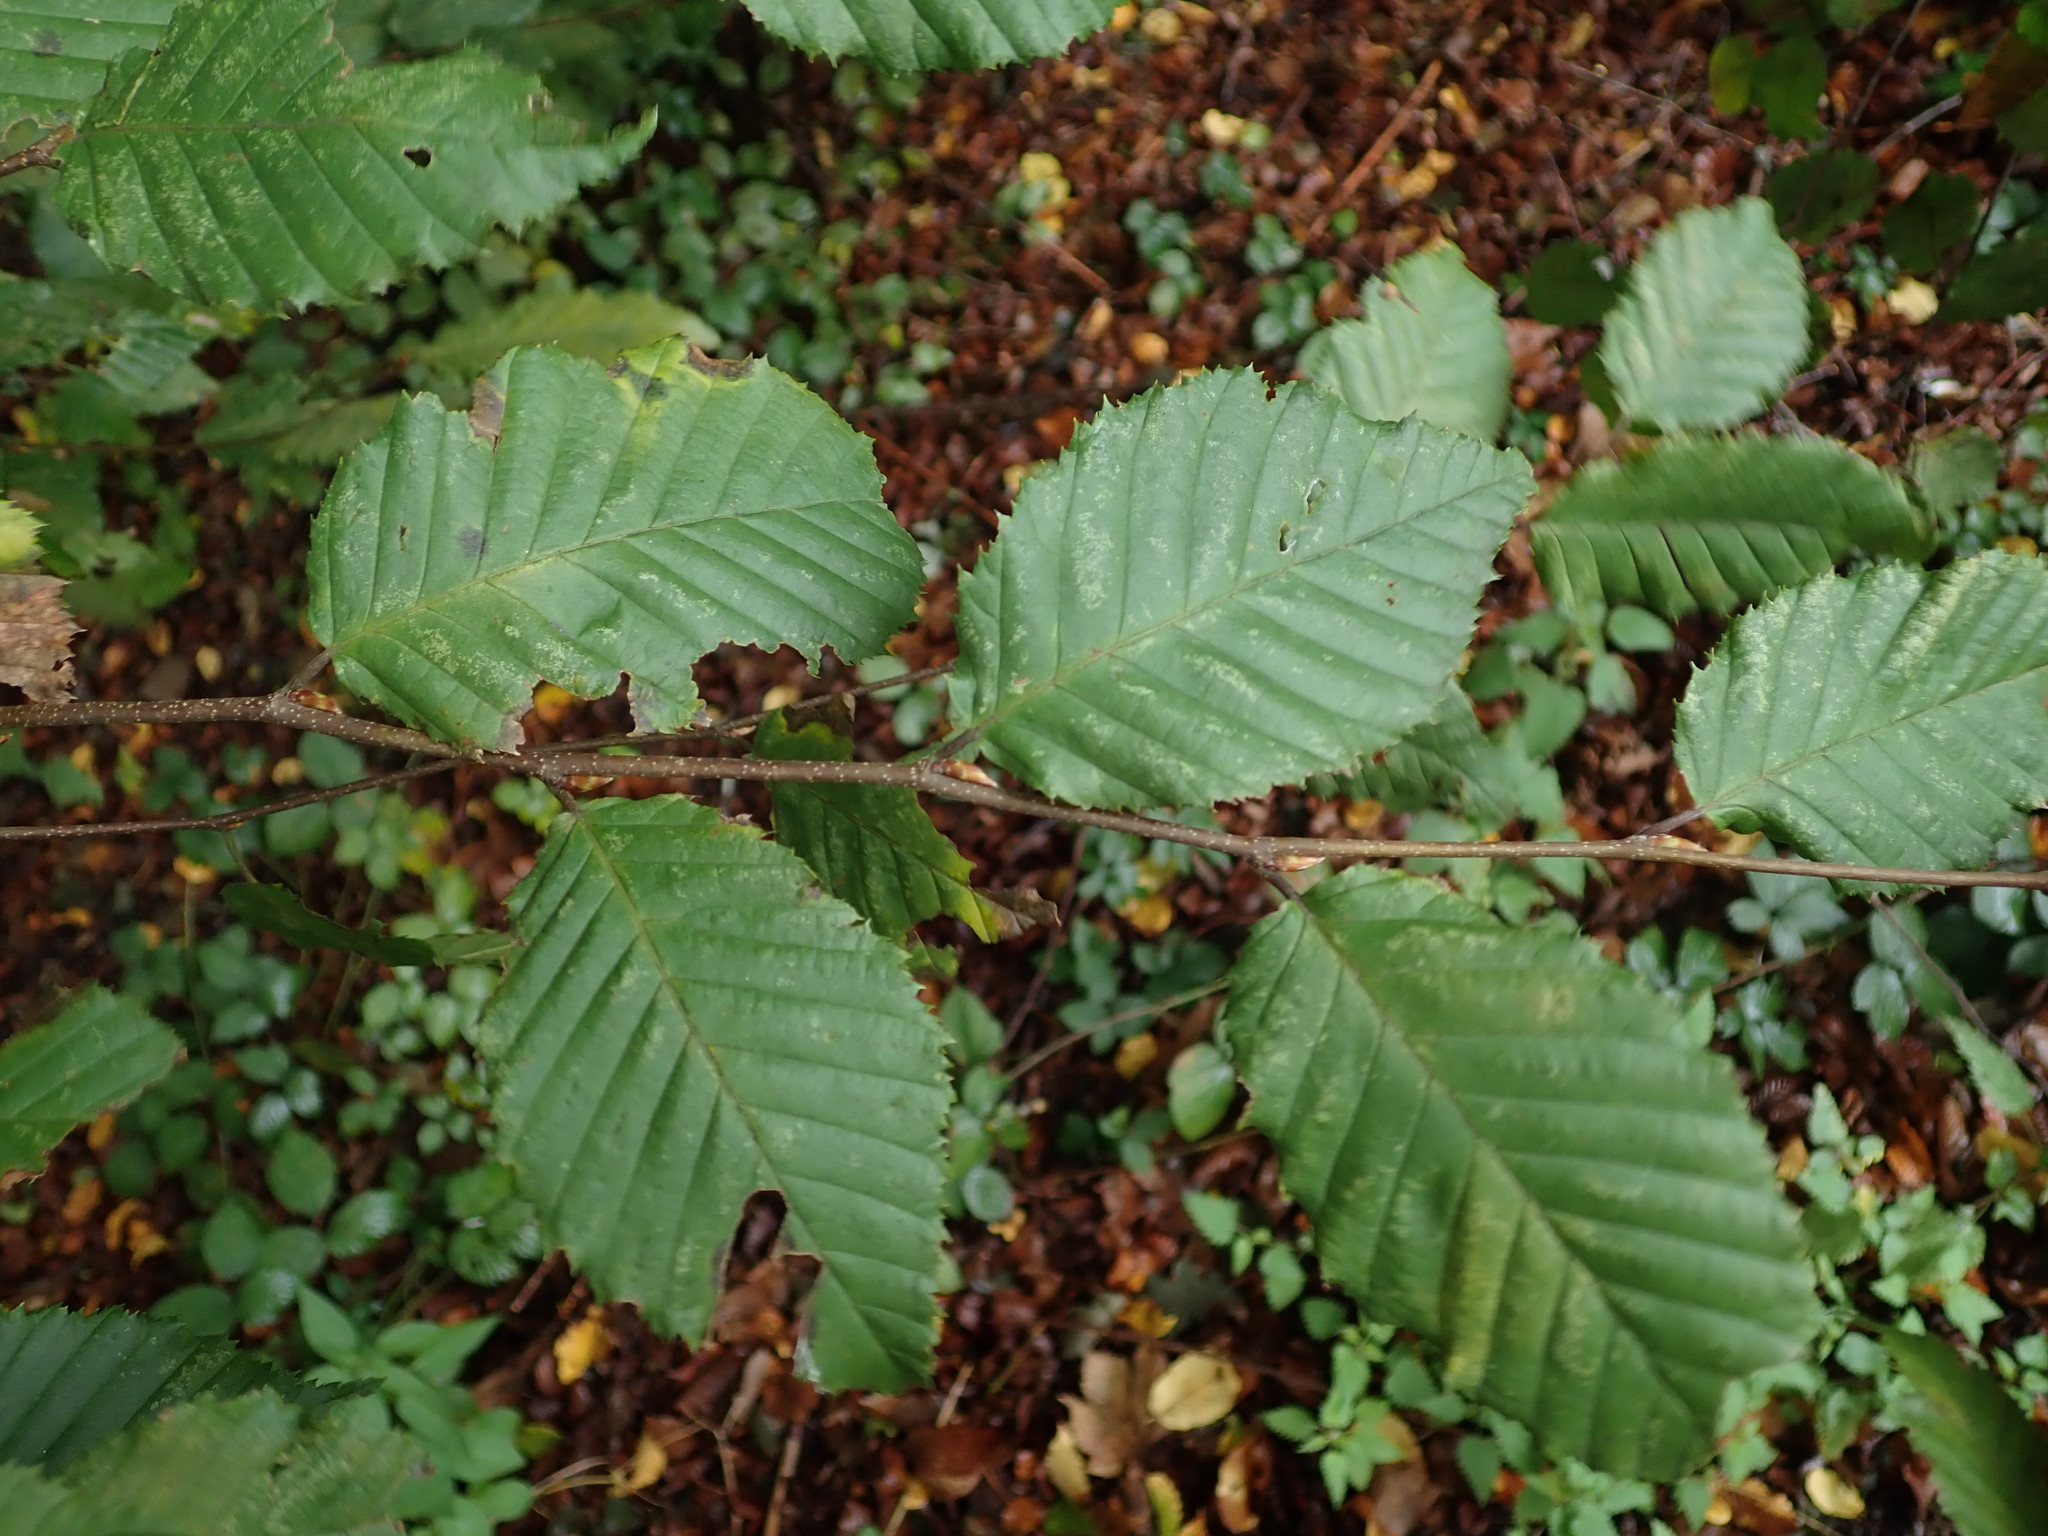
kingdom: Plantae
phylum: Tracheophyta
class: Magnoliopsida
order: Fagales
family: Betulaceae
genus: Carpinus
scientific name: Carpinus betulus
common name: Hornbeam
